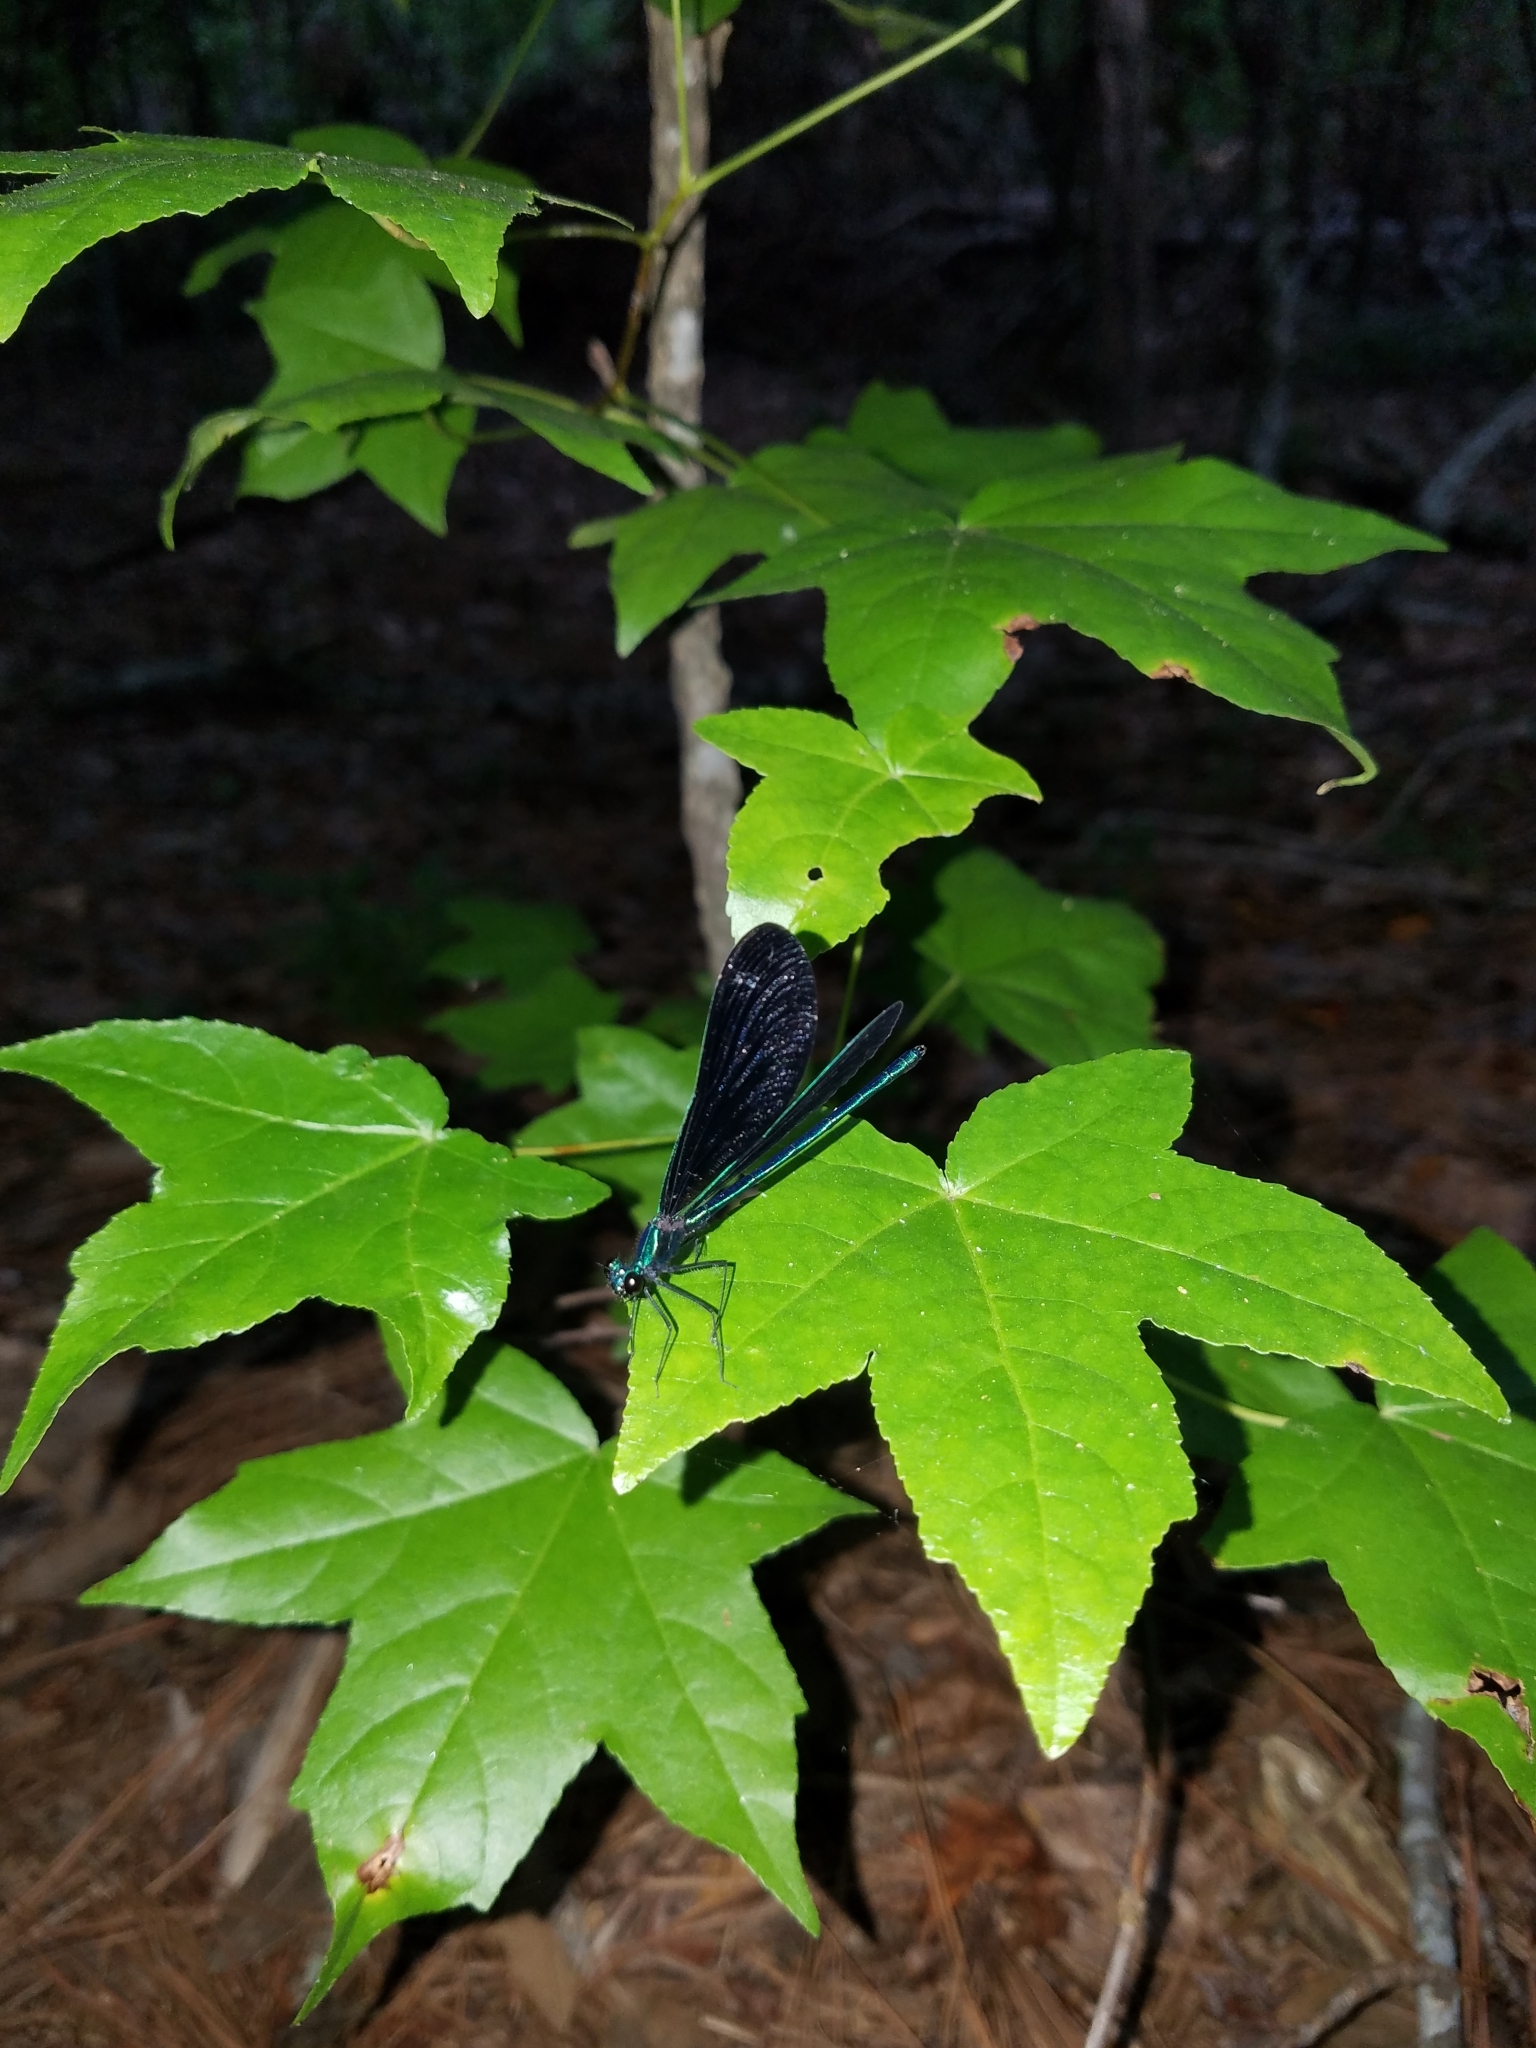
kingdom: Animalia
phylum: Arthropoda
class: Insecta
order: Odonata
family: Calopterygidae
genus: Calopteryx
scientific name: Calopteryx maculata
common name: Ebony jewelwing
